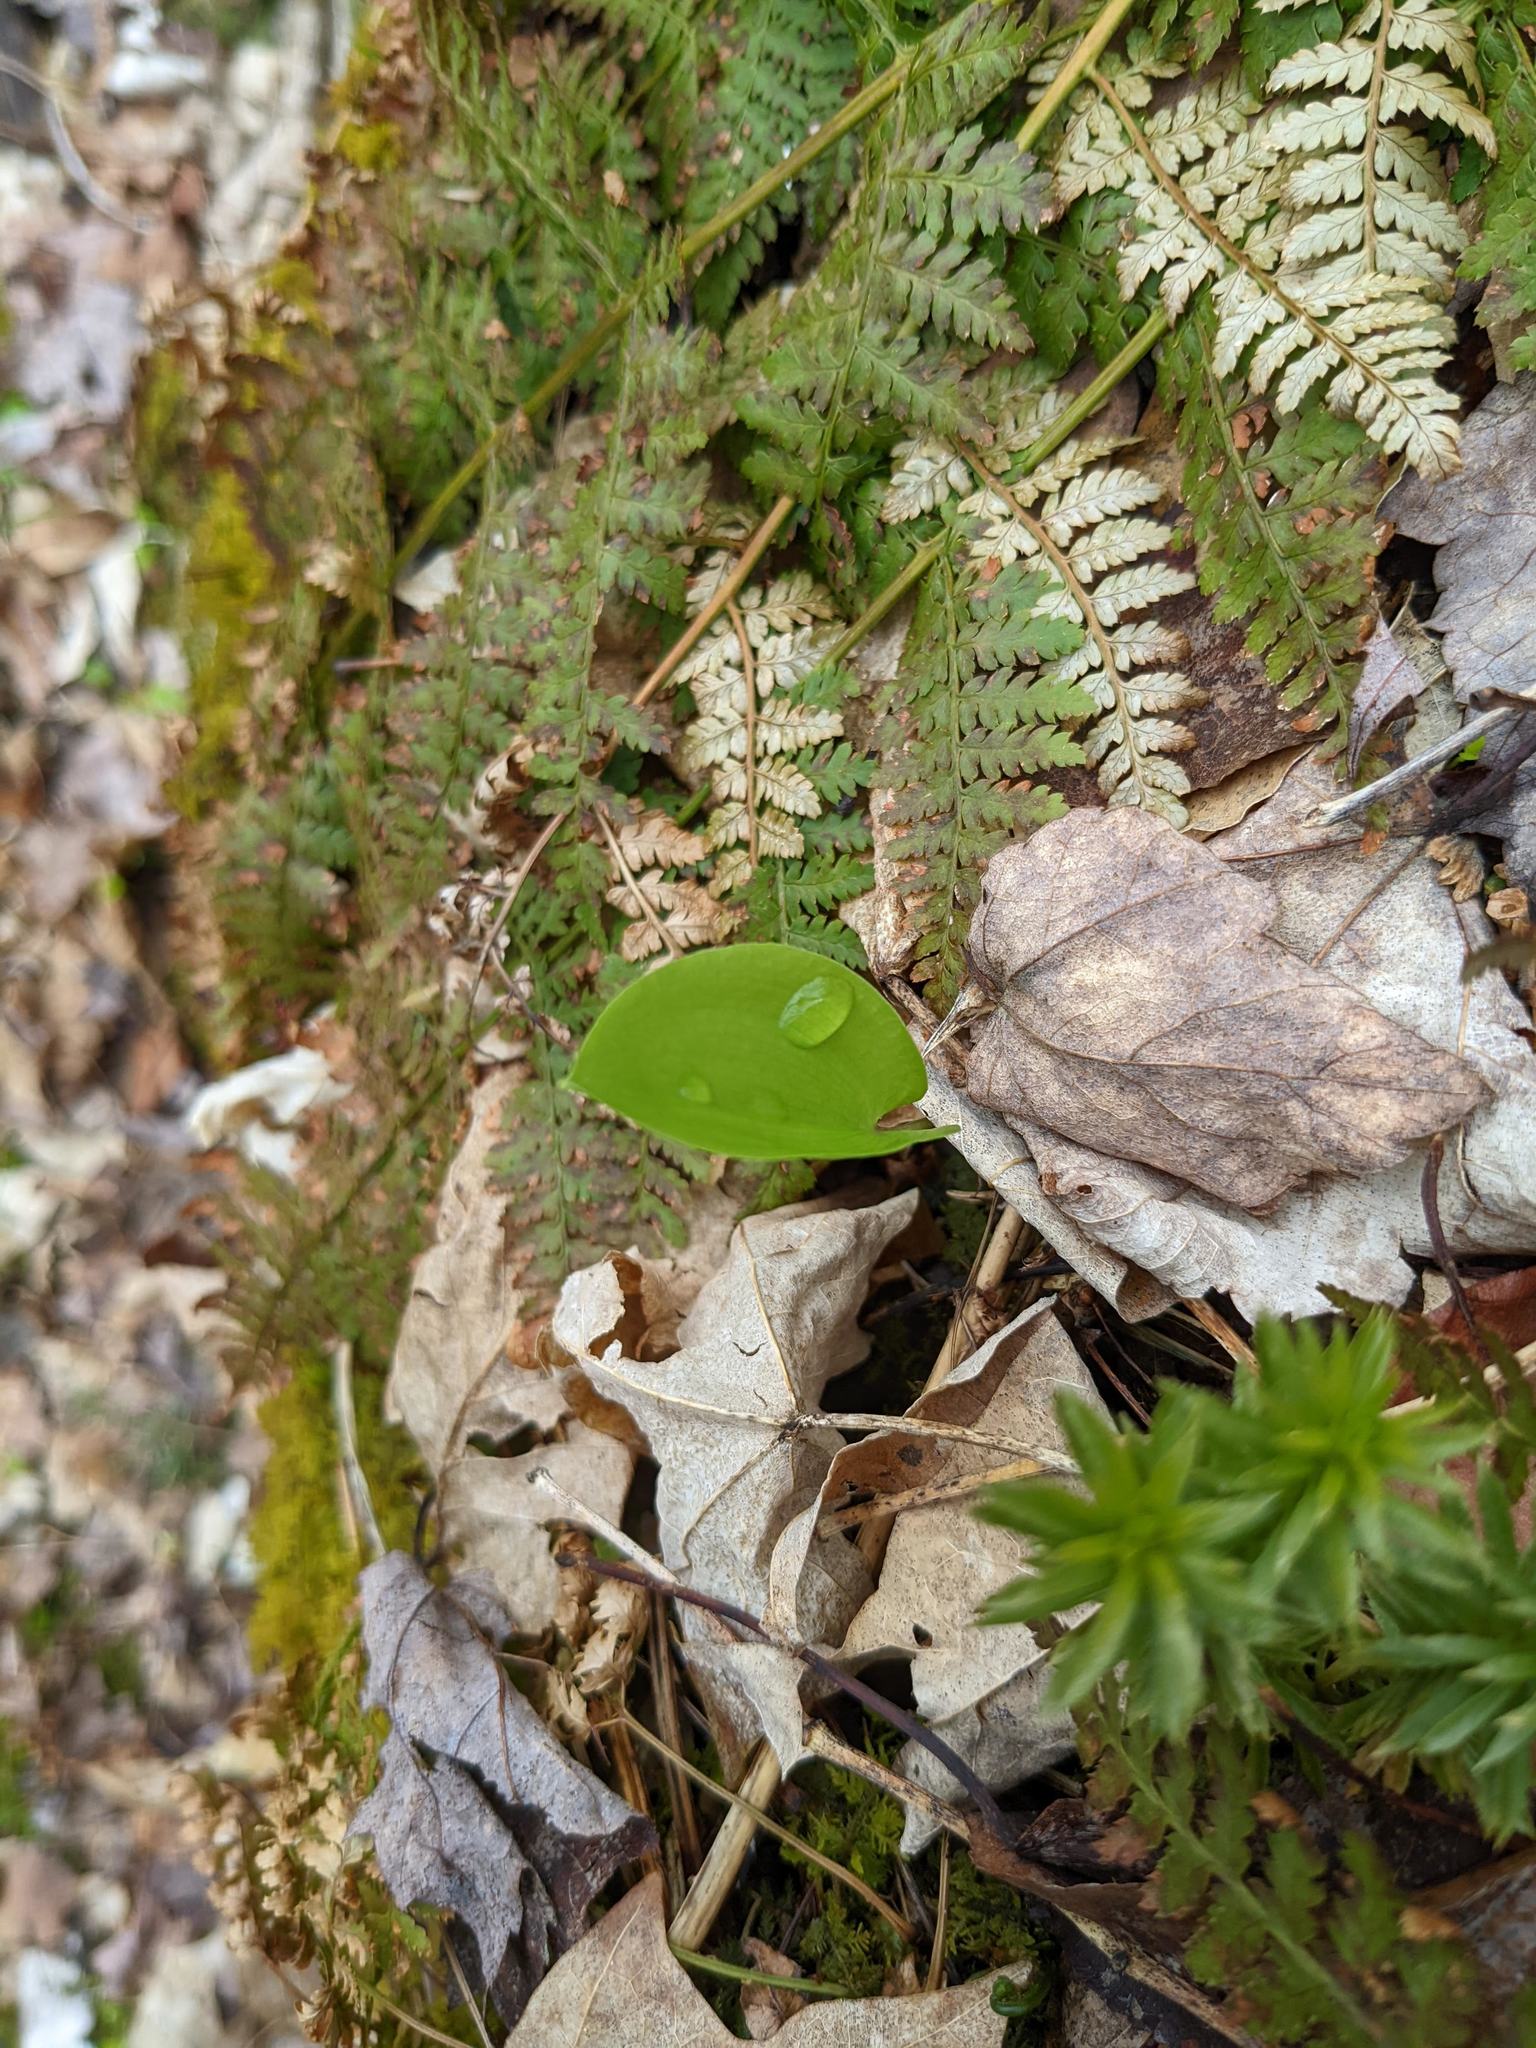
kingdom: Plantae
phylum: Tracheophyta
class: Liliopsida
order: Asparagales
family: Asparagaceae
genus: Maianthemum
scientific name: Maianthemum canadense
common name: False lily-of-the-valley
